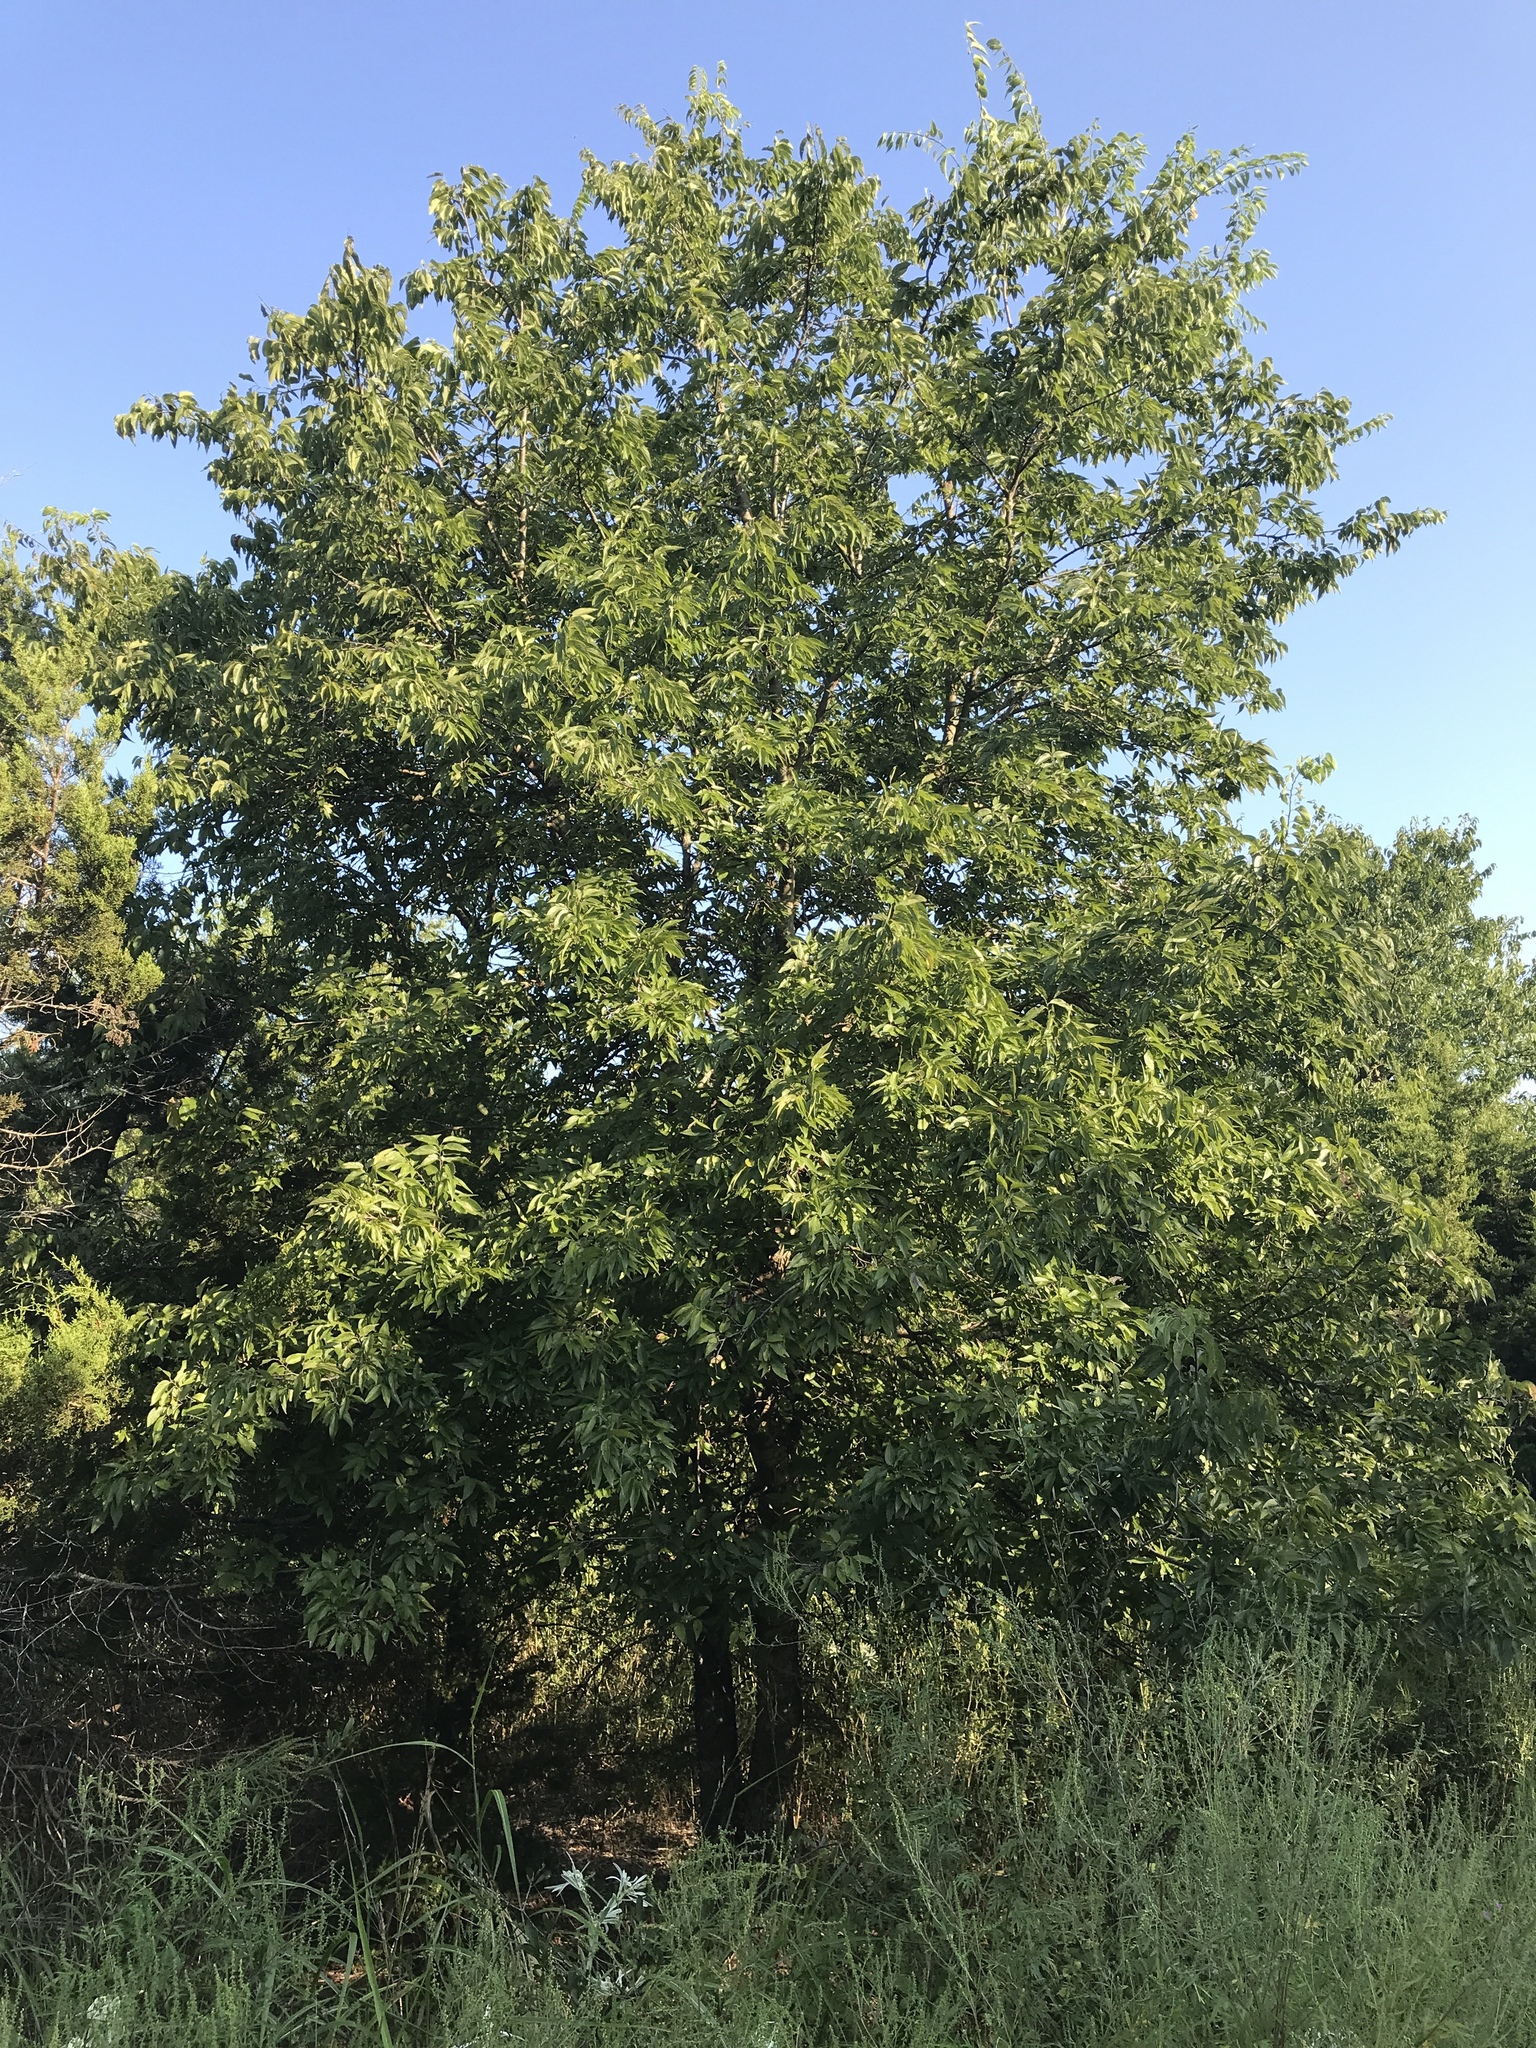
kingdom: Plantae
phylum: Tracheophyta
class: Magnoliopsida
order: Rosales
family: Cannabaceae
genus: Celtis
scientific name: Celtis laevigata
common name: Sugarberry
